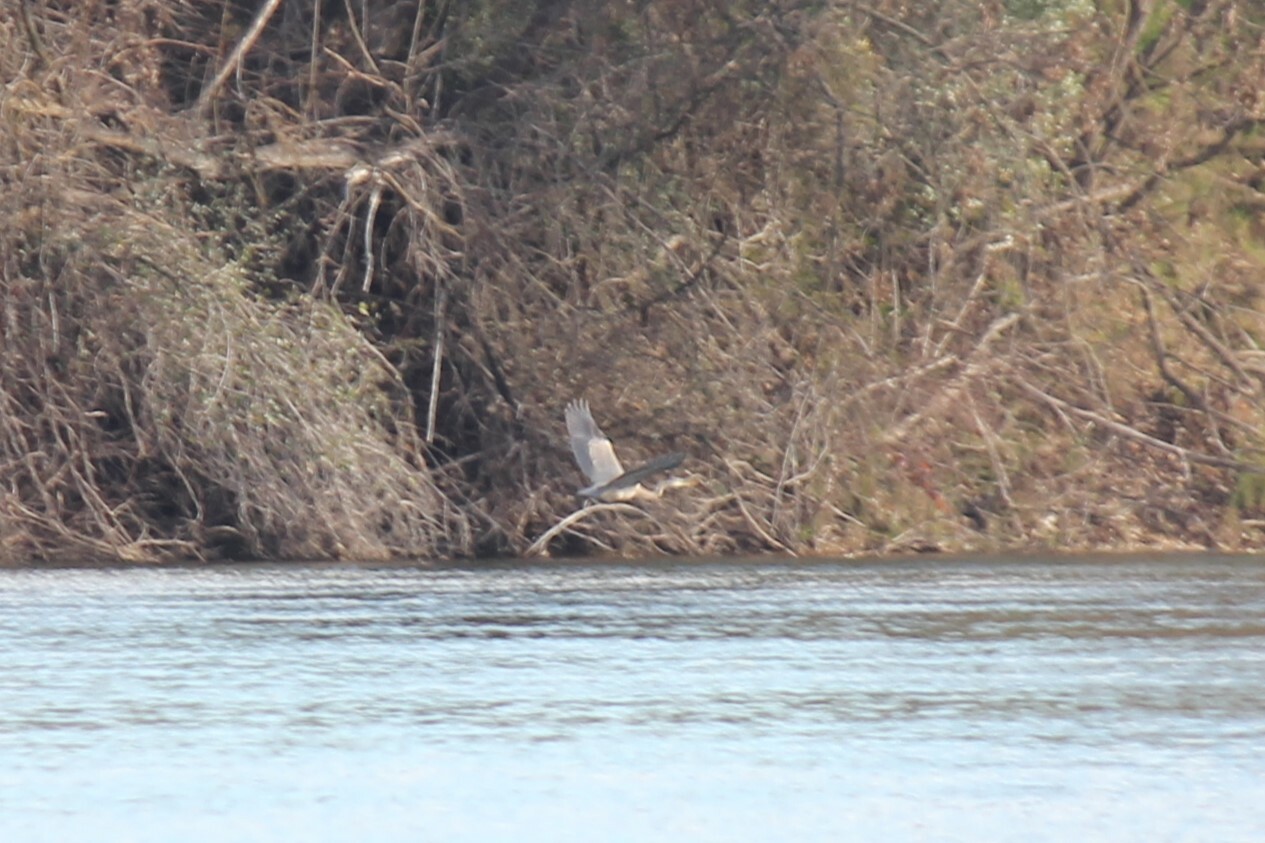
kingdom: Animalia
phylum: Chordata
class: Aves
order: Pelecaniformes
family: Ardeidae
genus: Ardea
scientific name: Ardea herodias
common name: Great blue heron
